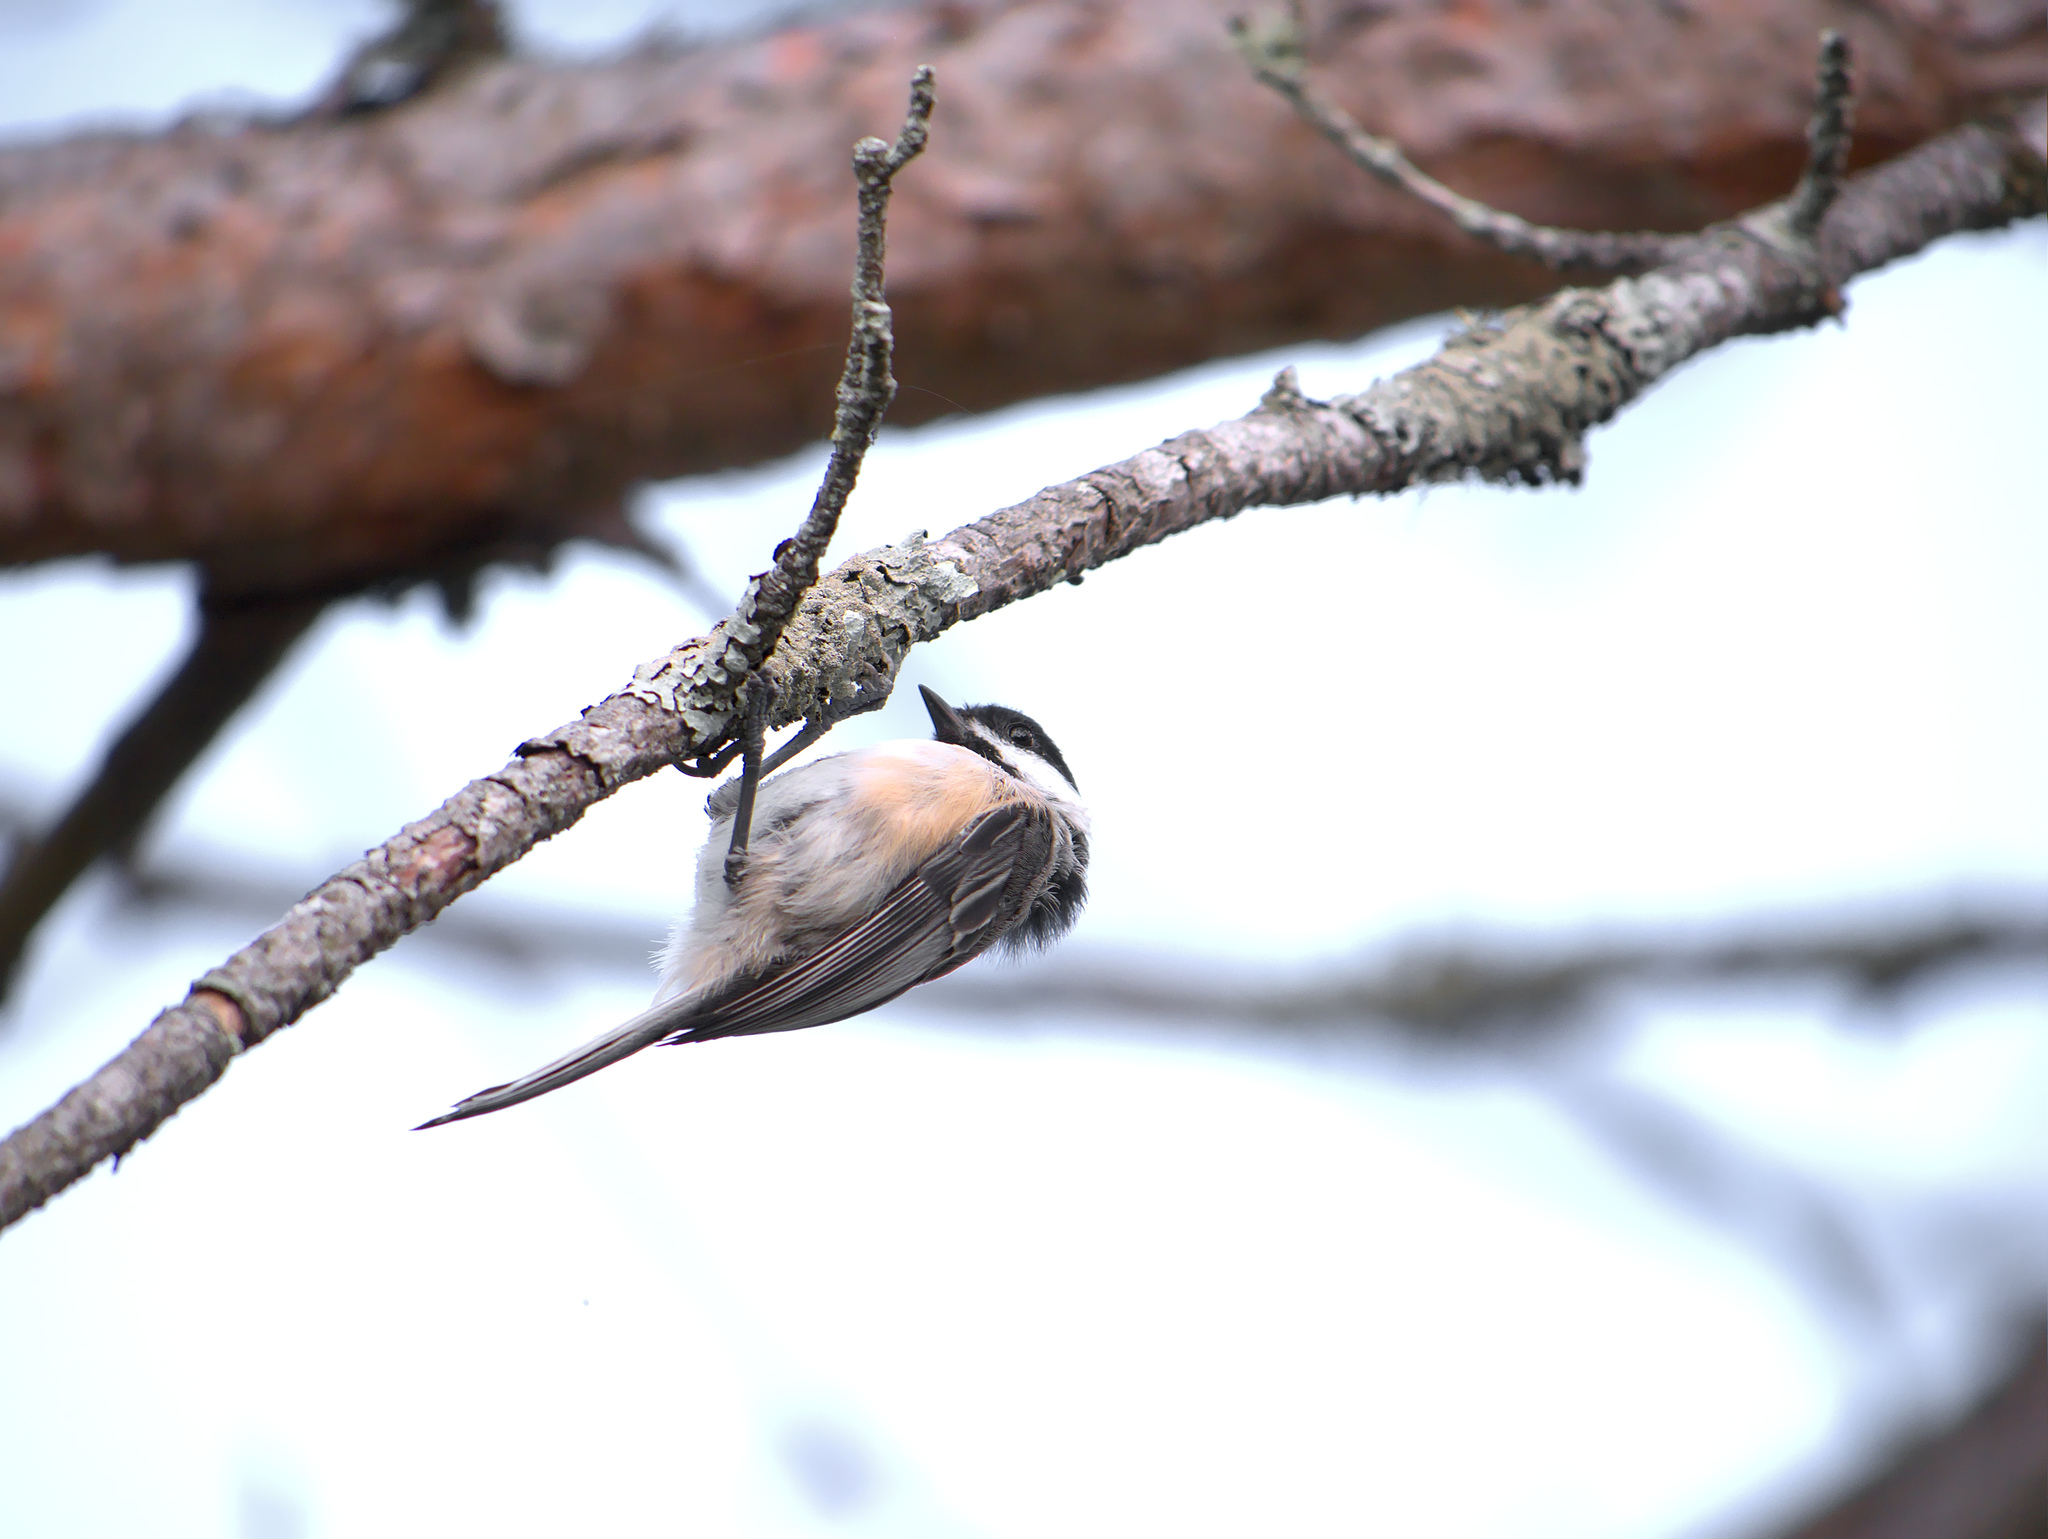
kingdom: Animalia
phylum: Chordata
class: Aves
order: Passeriformes
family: Paridae
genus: Poecile
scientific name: Poecile atricapillus
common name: Black-capped chickadee
